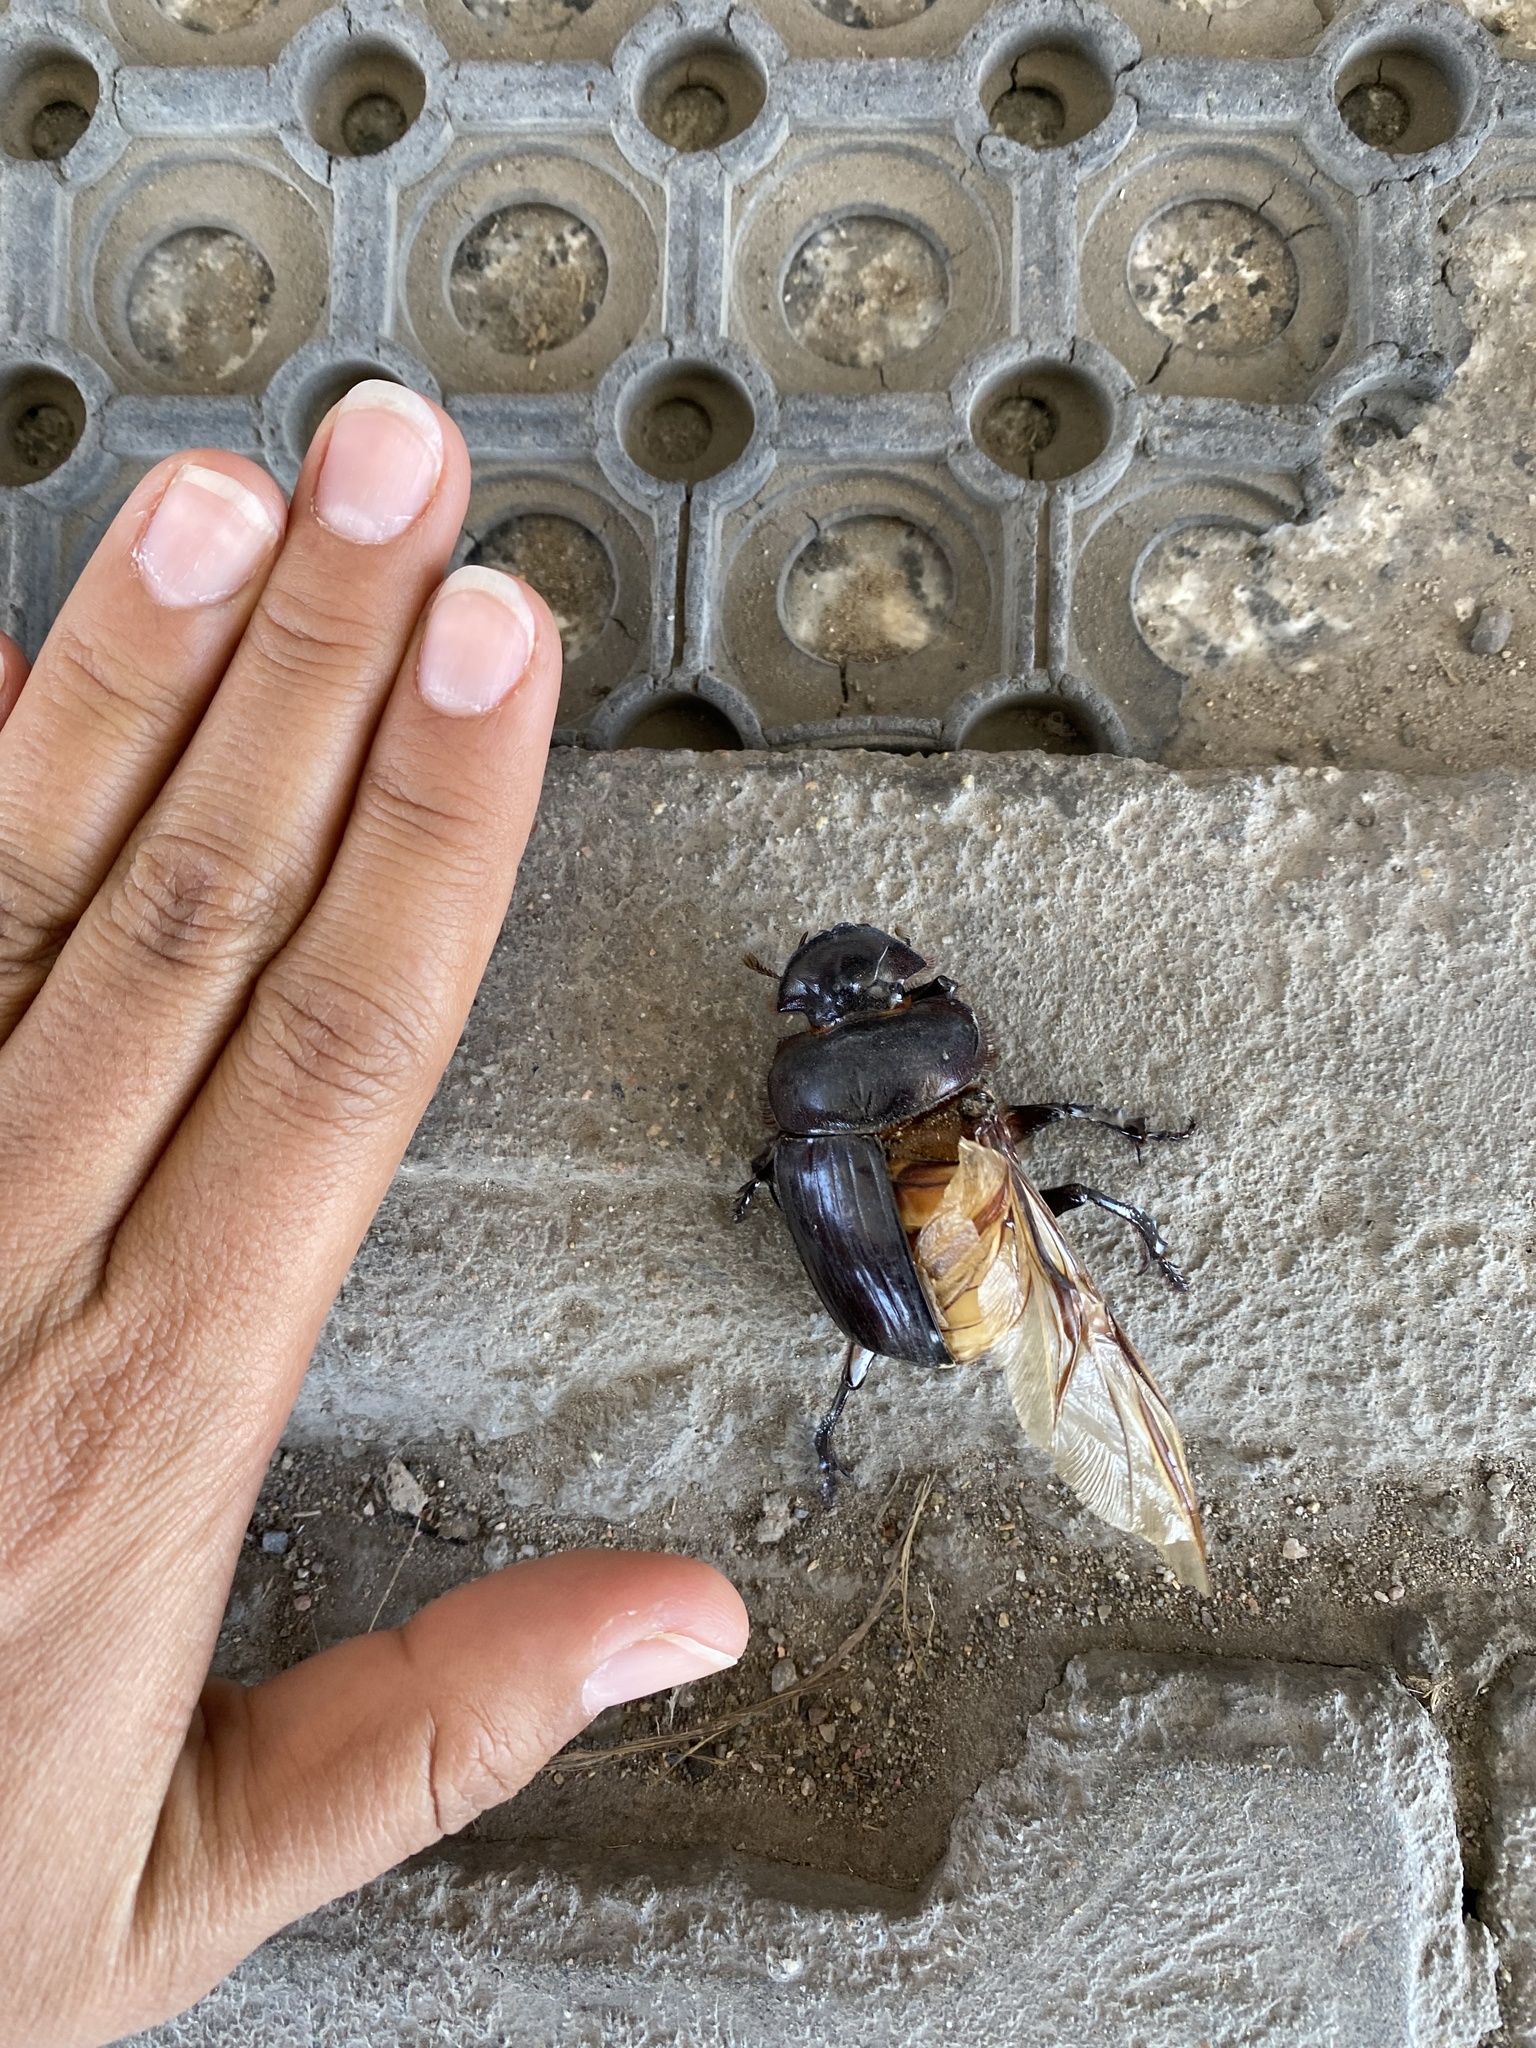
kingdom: Animalia
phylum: Arthropoda
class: Insecta
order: Coleoptera
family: Scarabaeidae
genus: Synapsis
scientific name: Synapsis tmolus
